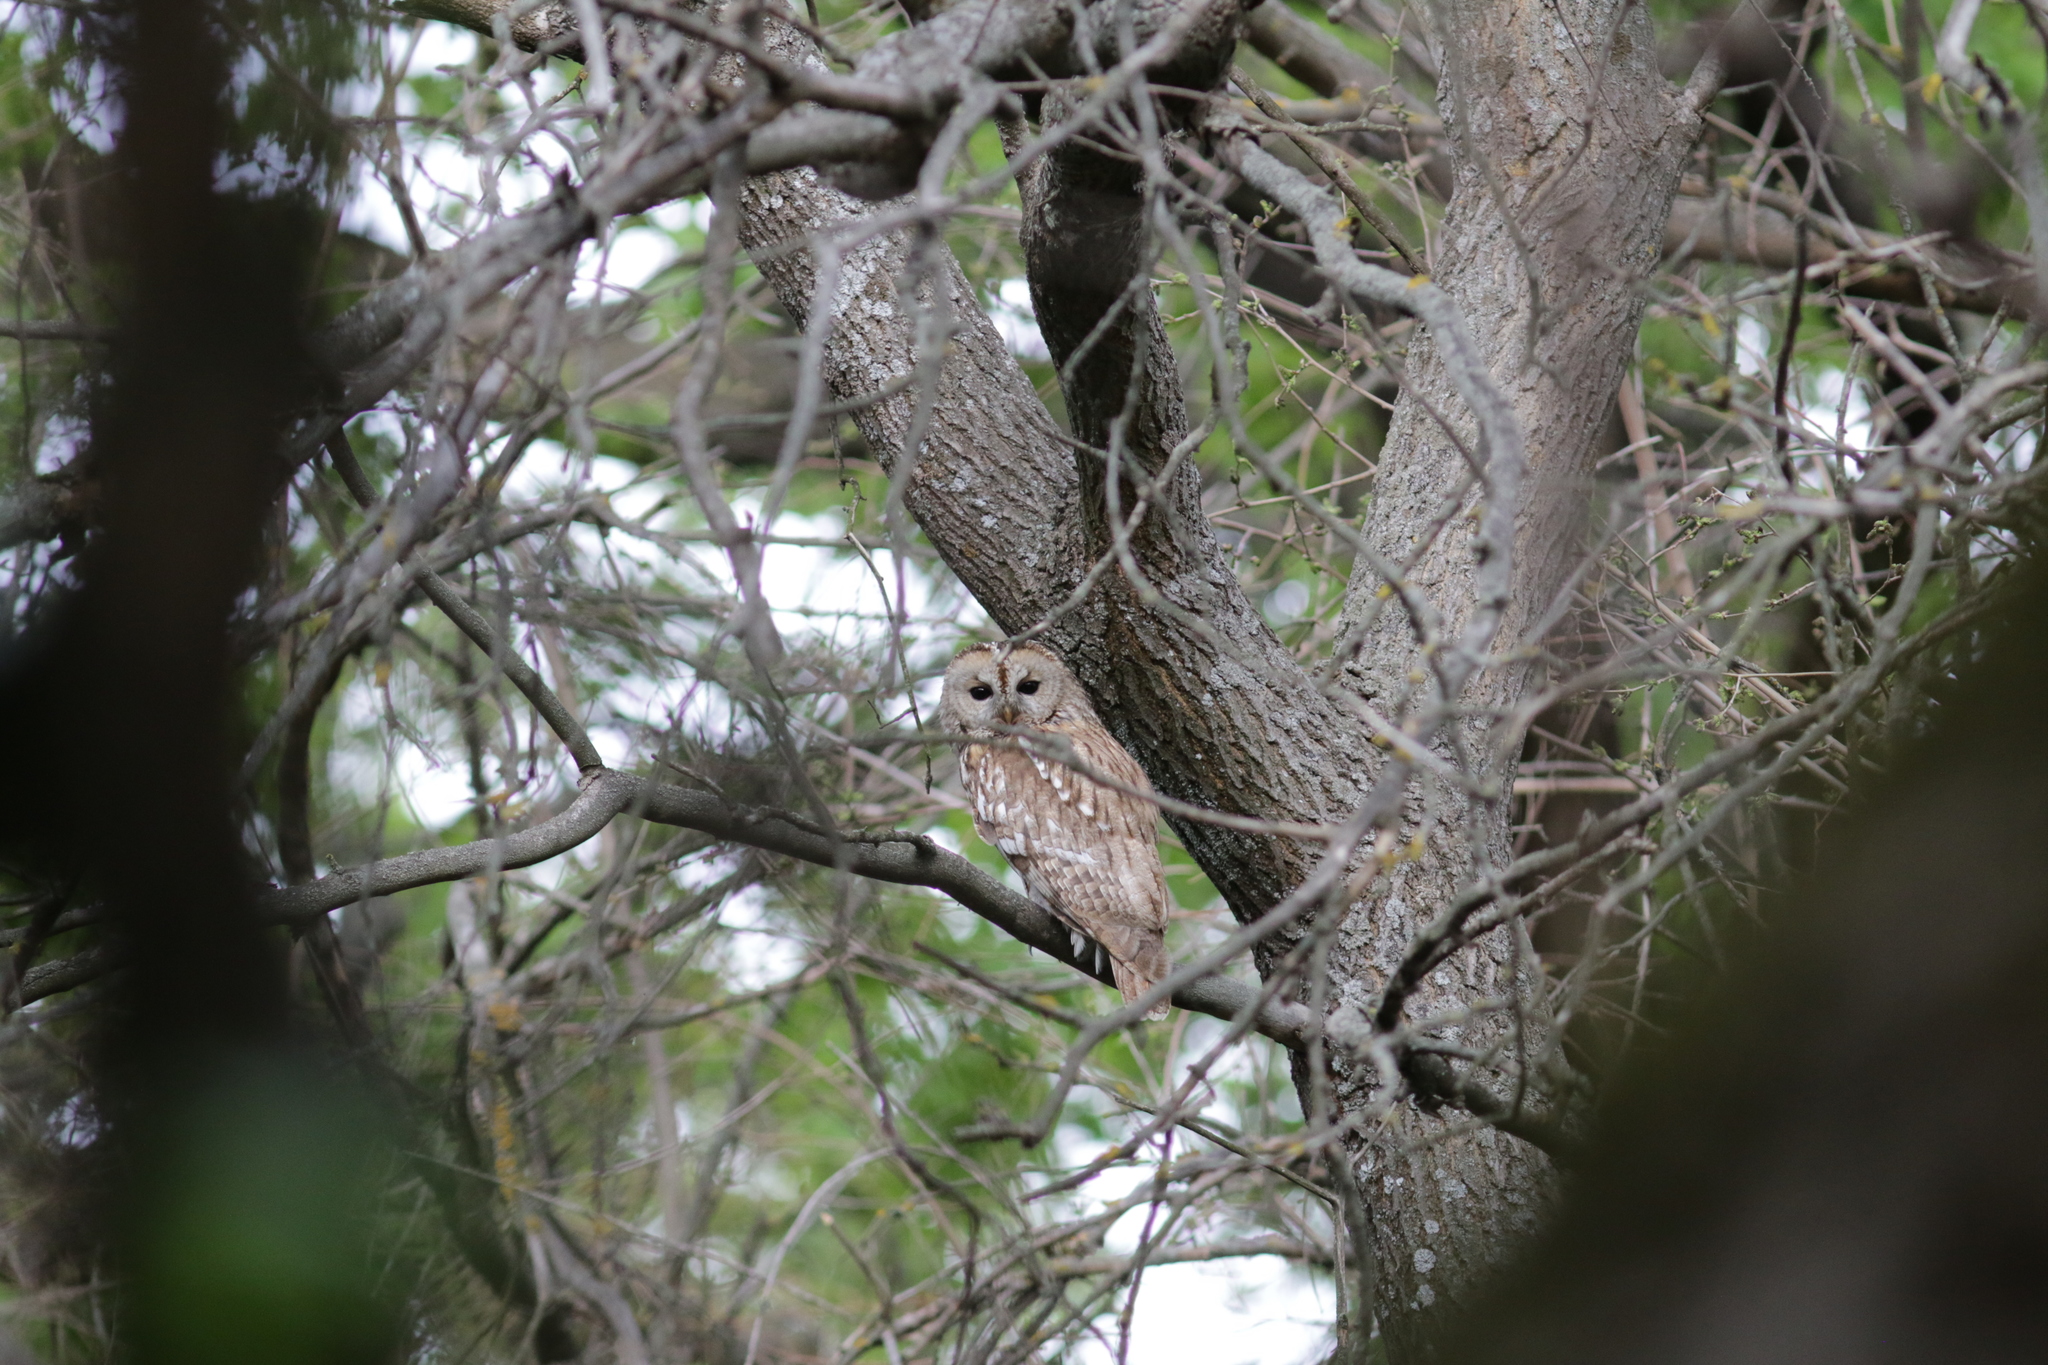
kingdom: Animalia
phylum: Chordata
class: Aves
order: Strigiformes
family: Strigidae
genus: Strix
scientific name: Strix aluco
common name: Tawny owl
